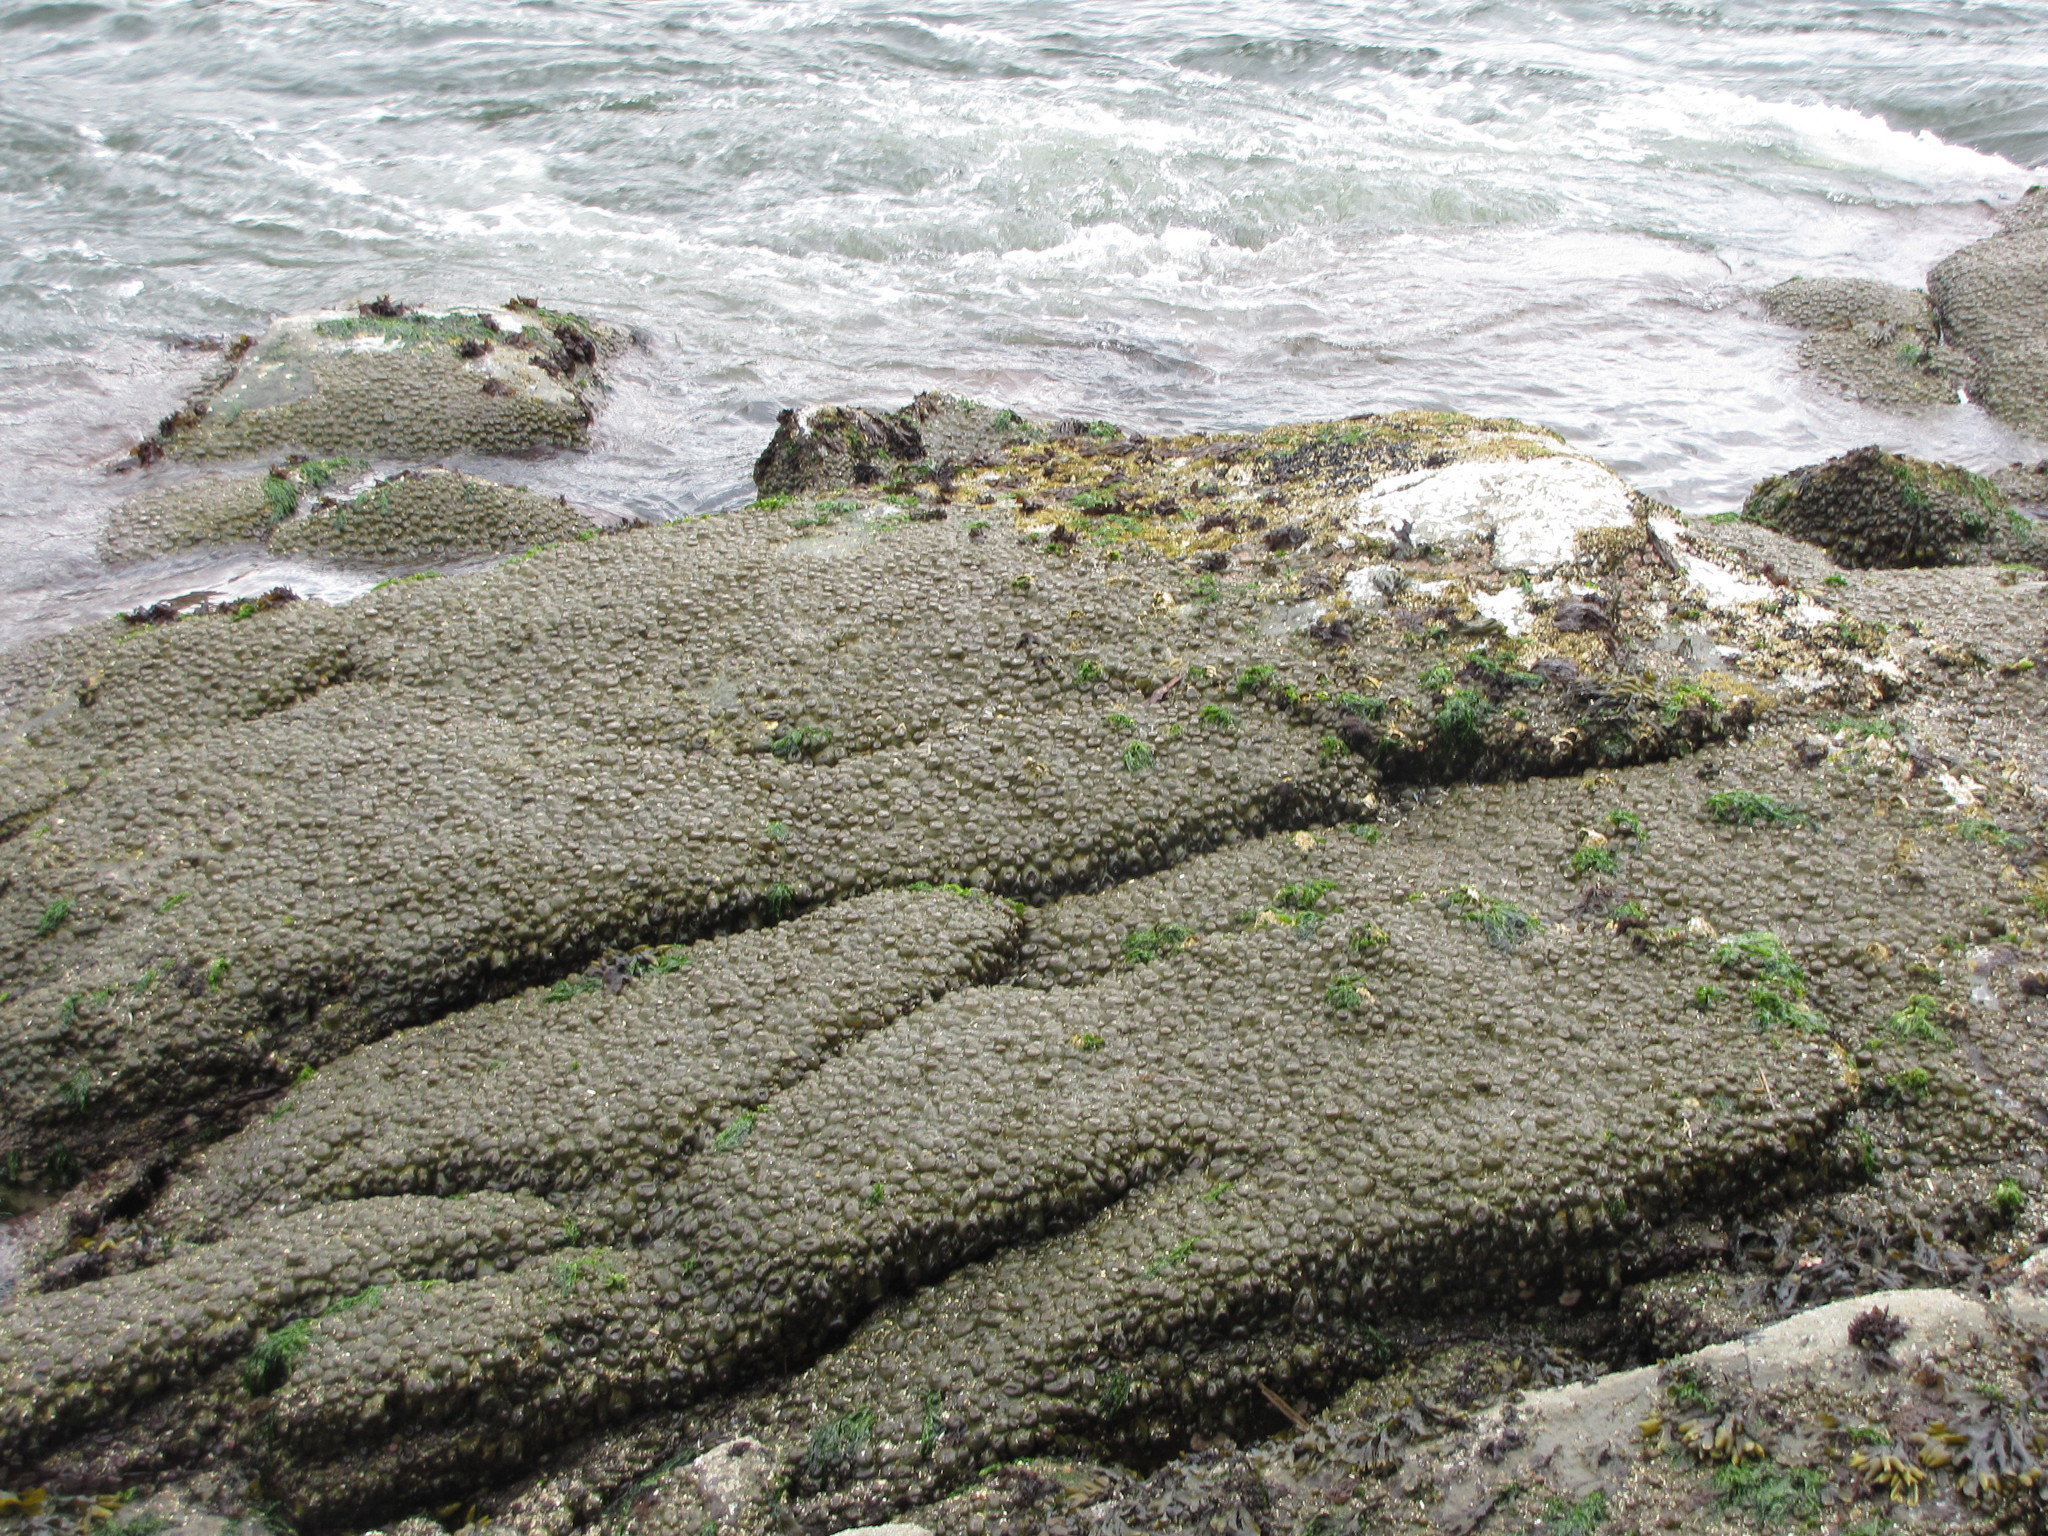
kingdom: Animalia
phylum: Cnidaria
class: Anthozoa
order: Actiniaria
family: Actiniidae
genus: Anthopleura
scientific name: Anthopleura elegantissima
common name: Clonal anemone
